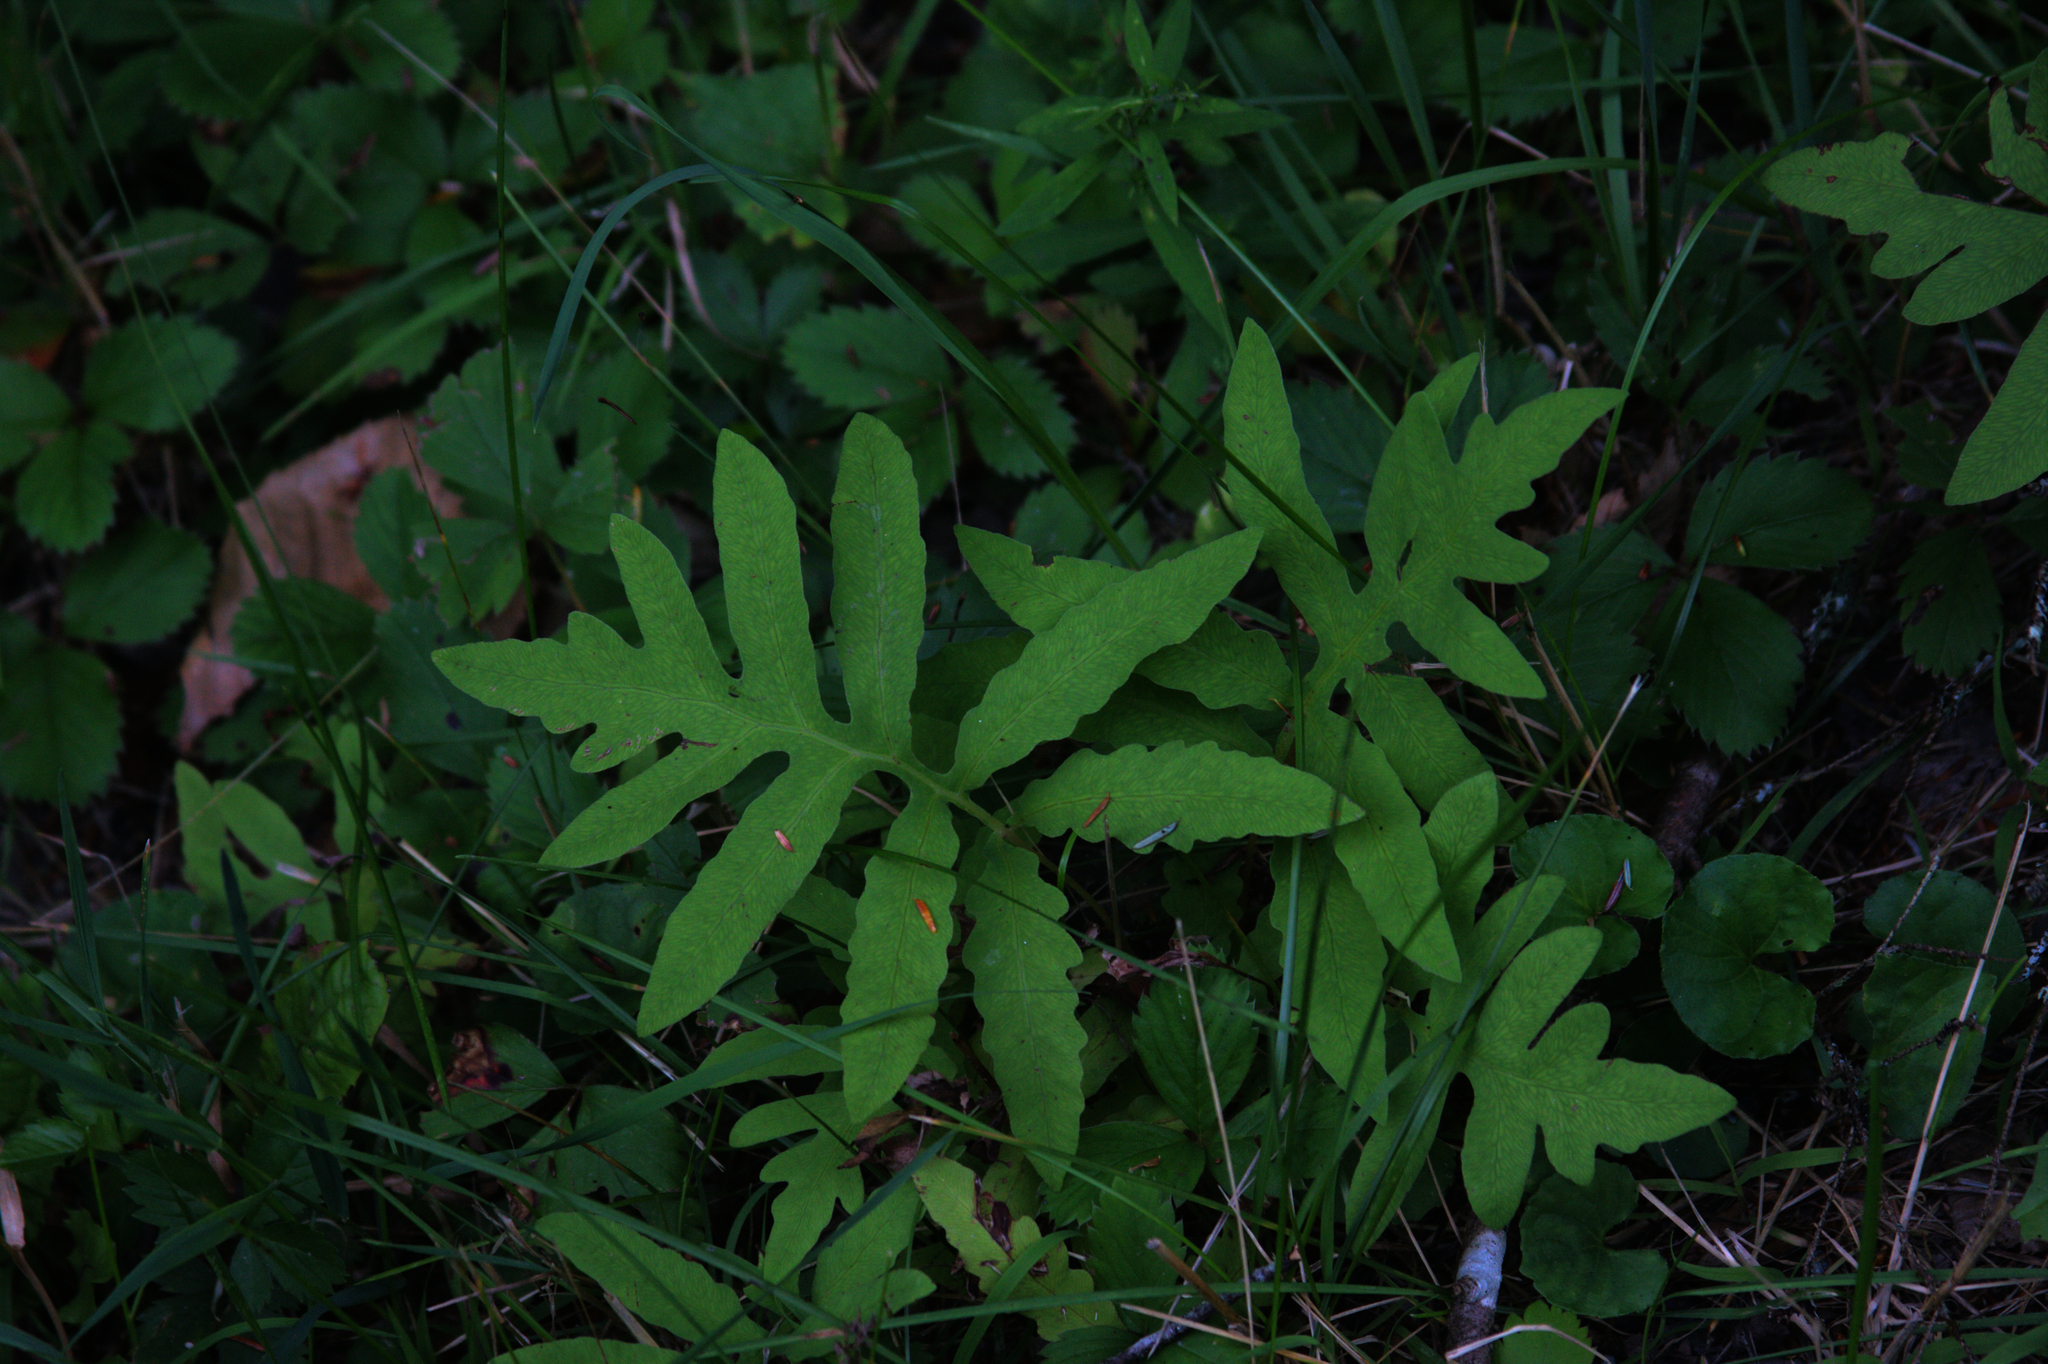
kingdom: Plantae
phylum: Tracheophyta
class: Polypodiopsida
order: Polypodiales
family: Onocleaceae
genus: Onoclea
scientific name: Onoclea sensibilis
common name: Sensitive fern
